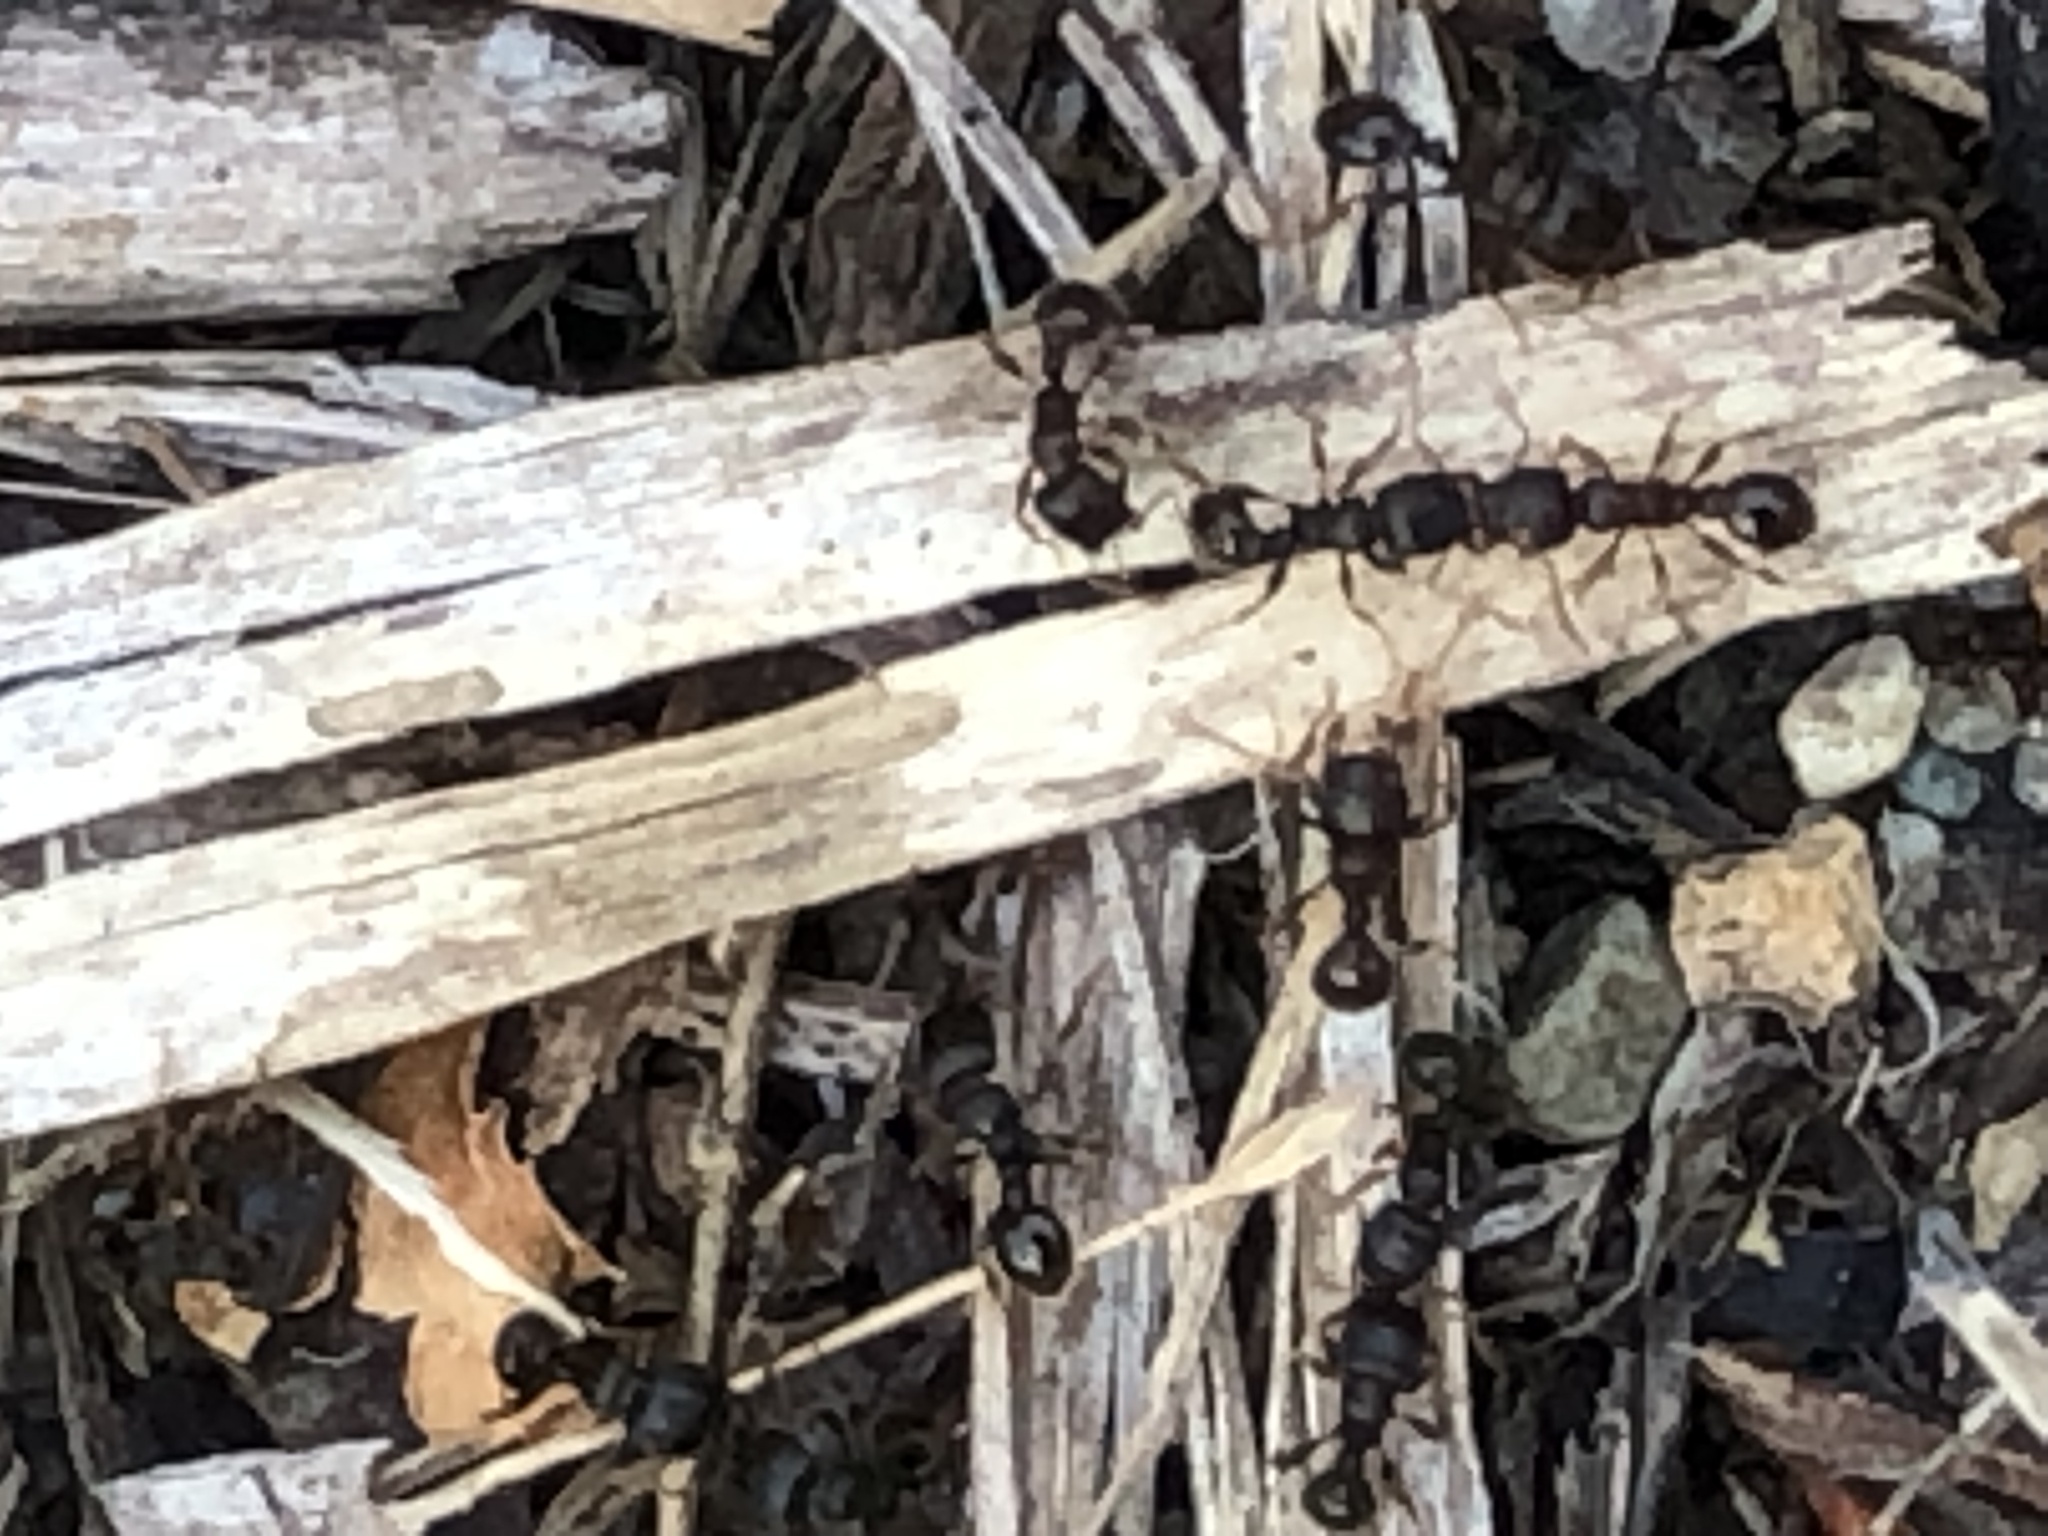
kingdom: Animalia
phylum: Arthropoda
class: Insecta
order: Hymenoptera
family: Formicidae
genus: Tetramorium
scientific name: Tetramorium immigrans
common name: Pavement ant
